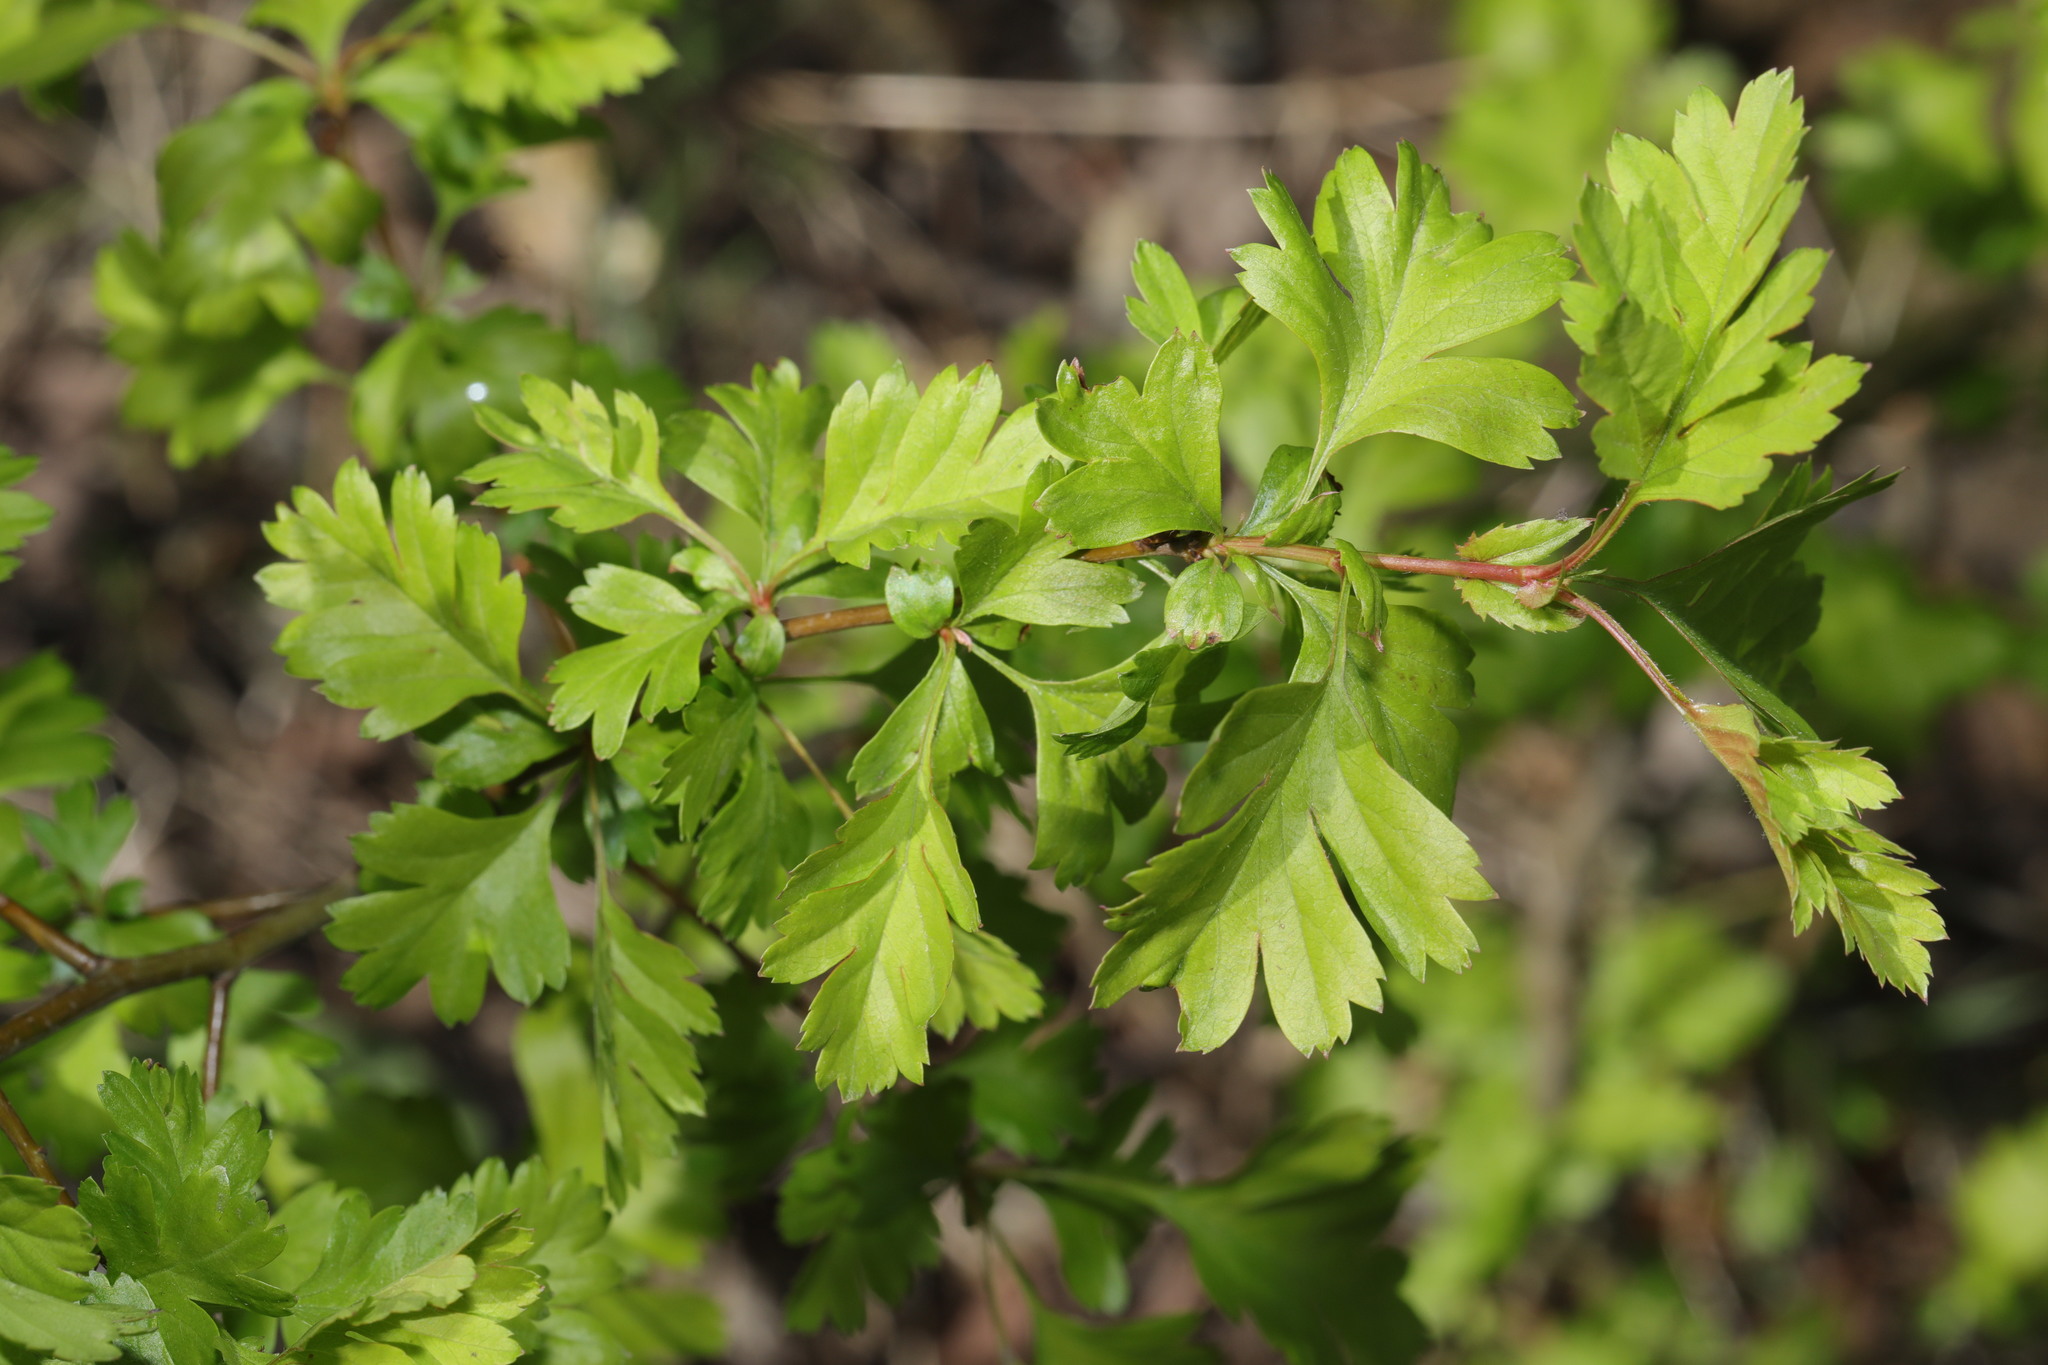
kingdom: Plantae
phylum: Tracheophyta
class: Magnoliopsida
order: Rosales
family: Rosaceae
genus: Crataegus
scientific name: Crataegus monogyna
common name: Hawthorn
